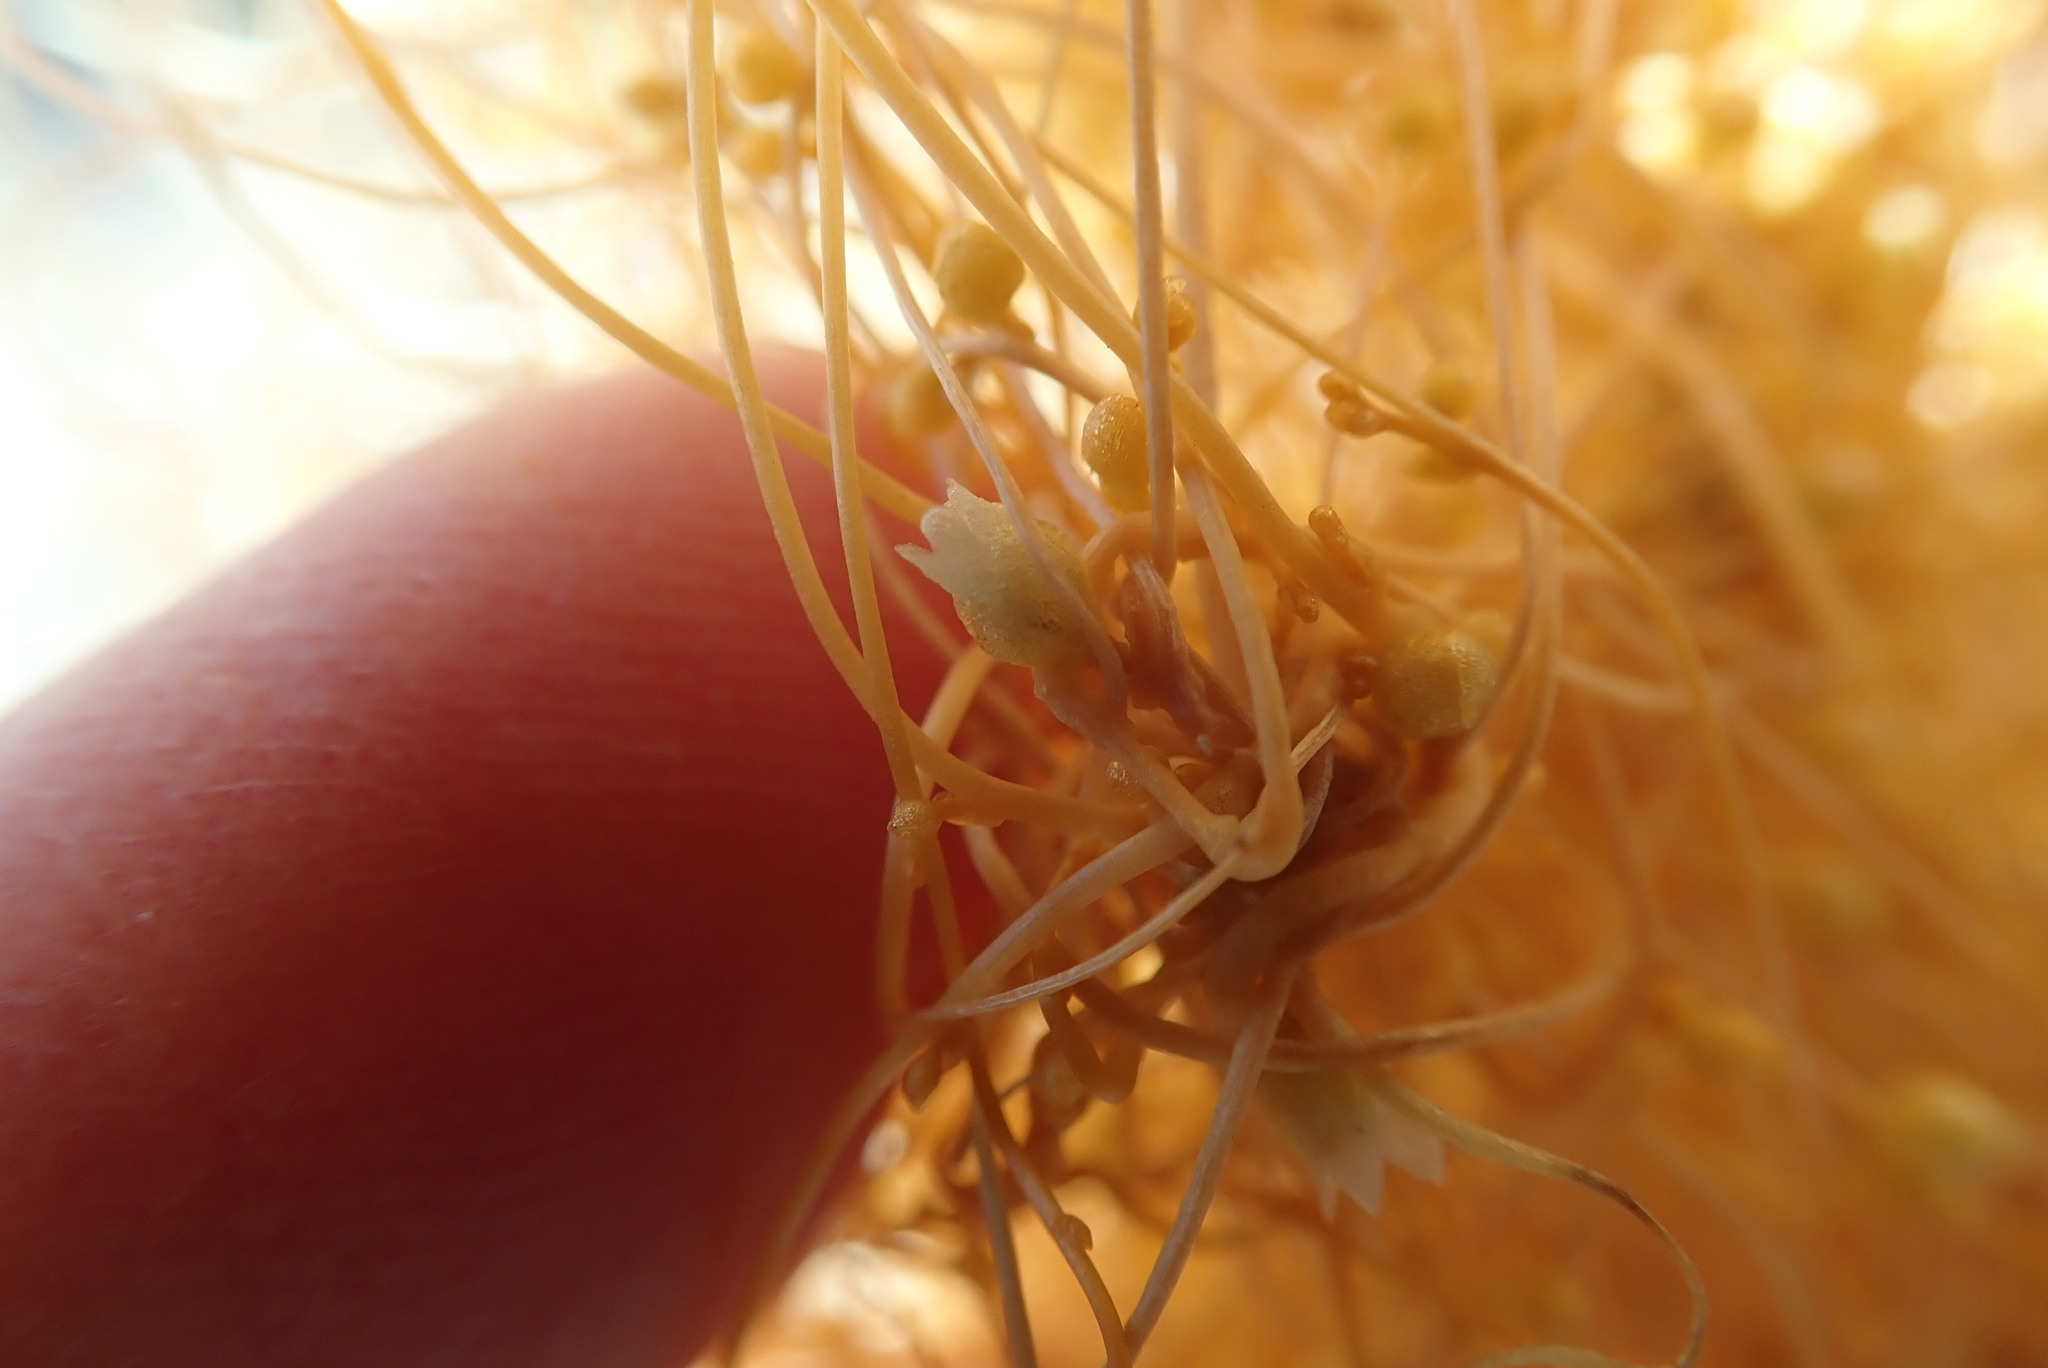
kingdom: Plantae
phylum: Tracheophyta
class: Magnoliopsida
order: Solanales
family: Convolvulaceae
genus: Cuscuta
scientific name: Cuscuta psorothamnensis
